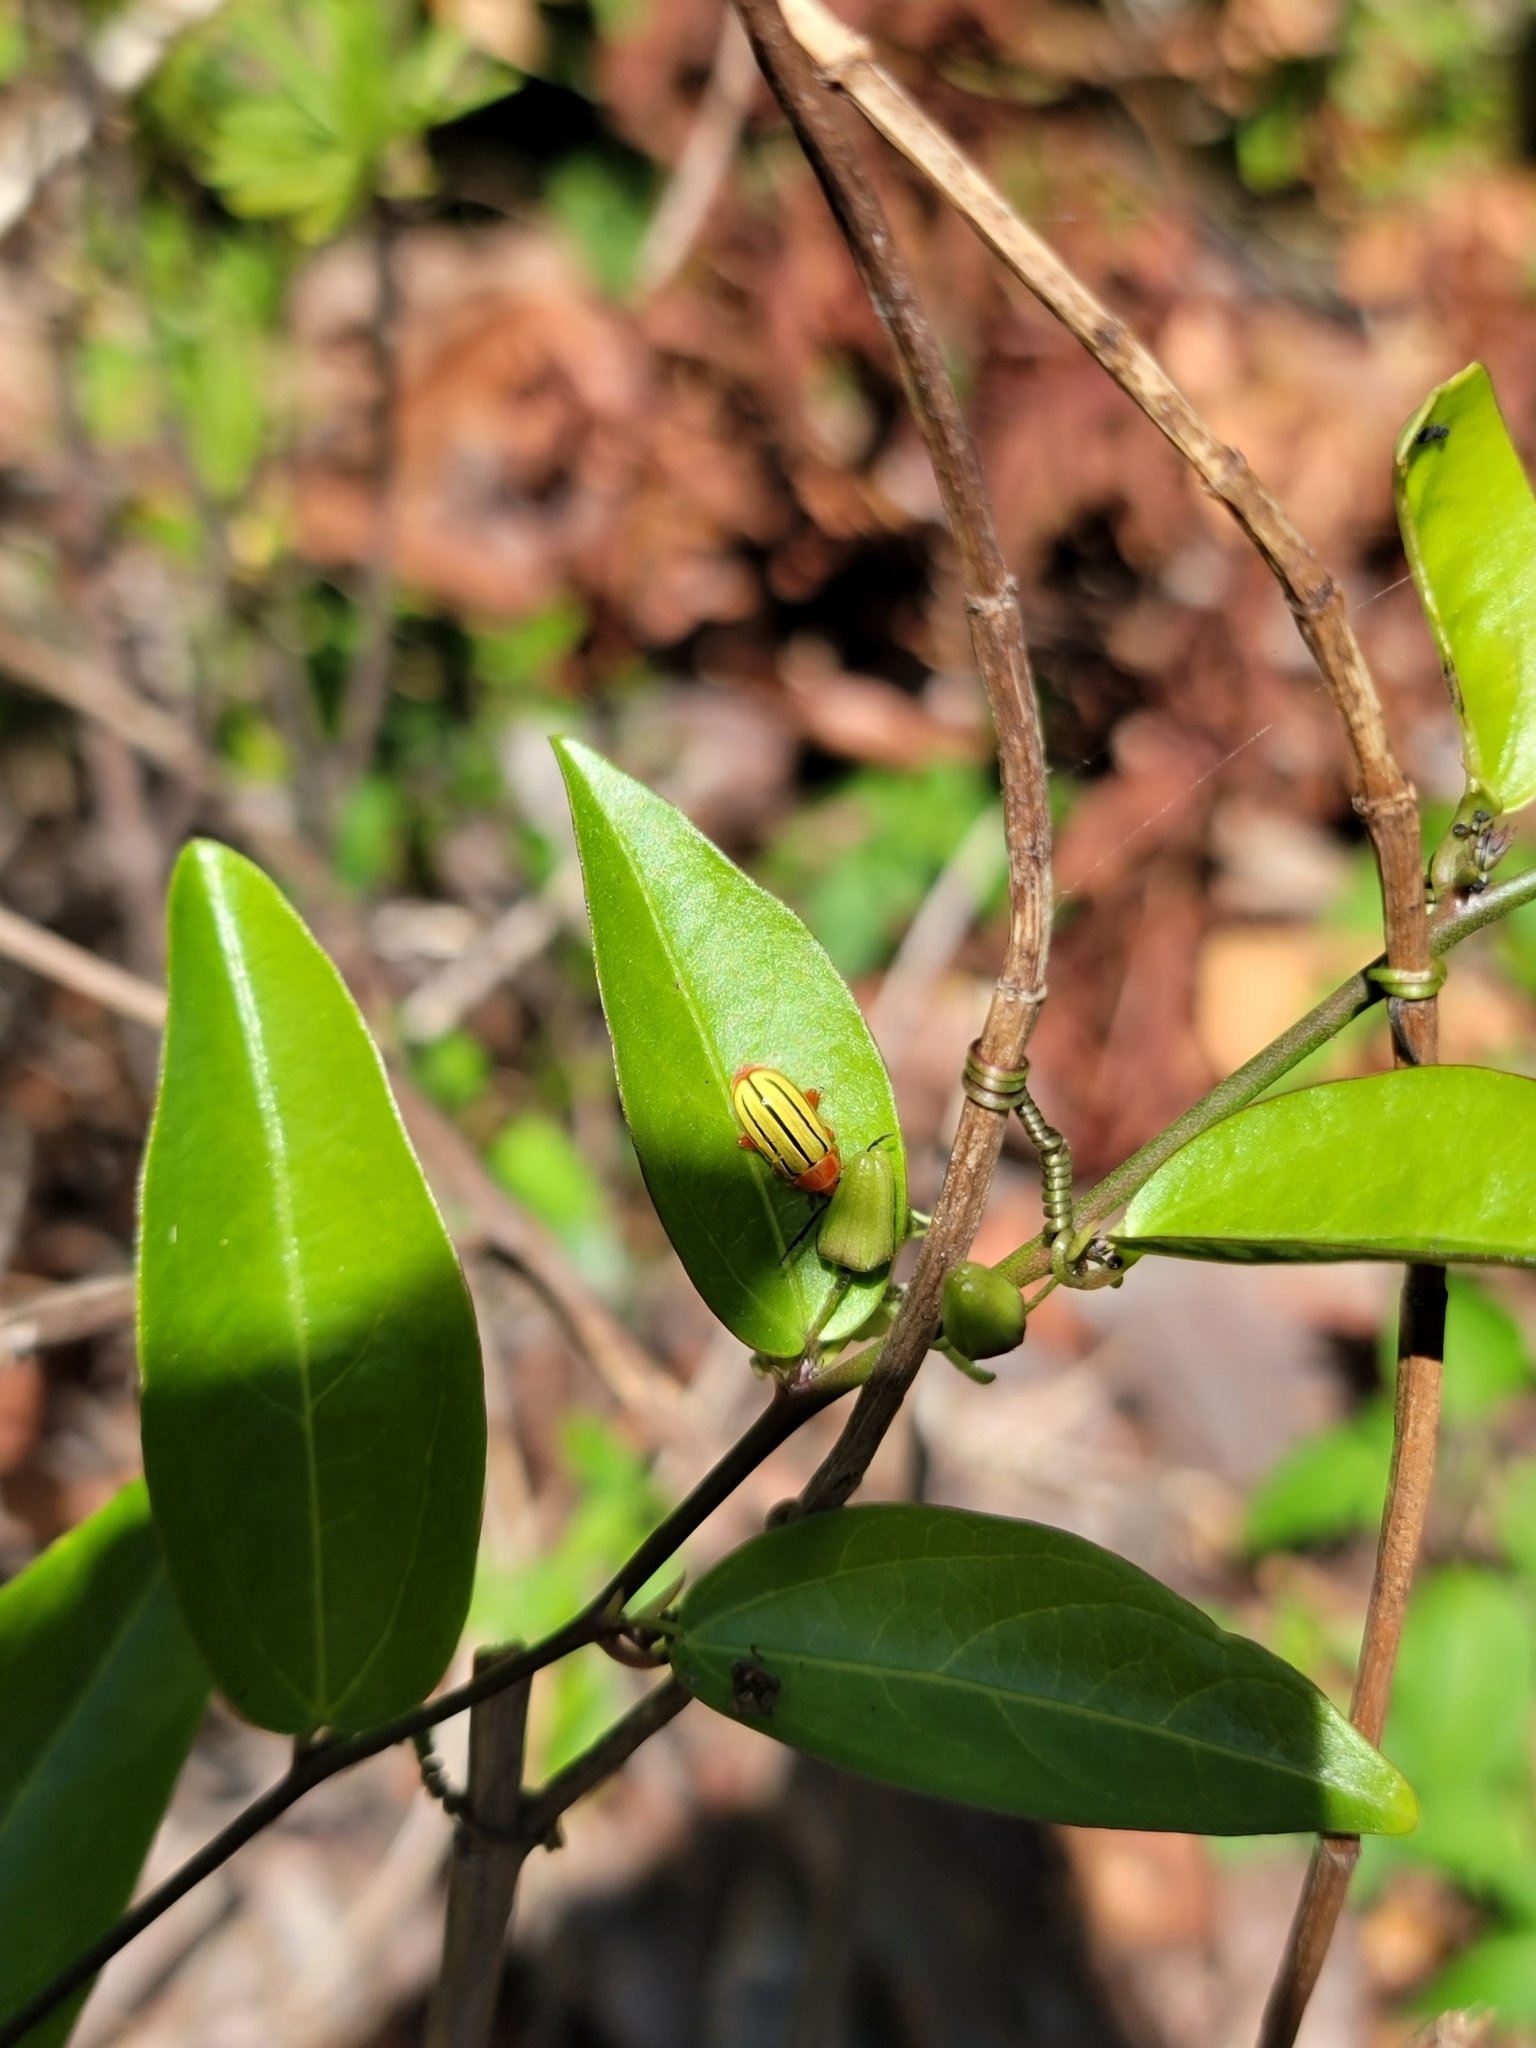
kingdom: Animalia
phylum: Arthropoda
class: Insecta
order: Coleoptera
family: Chrysomelidae
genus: Disonycha
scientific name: Disonycha
